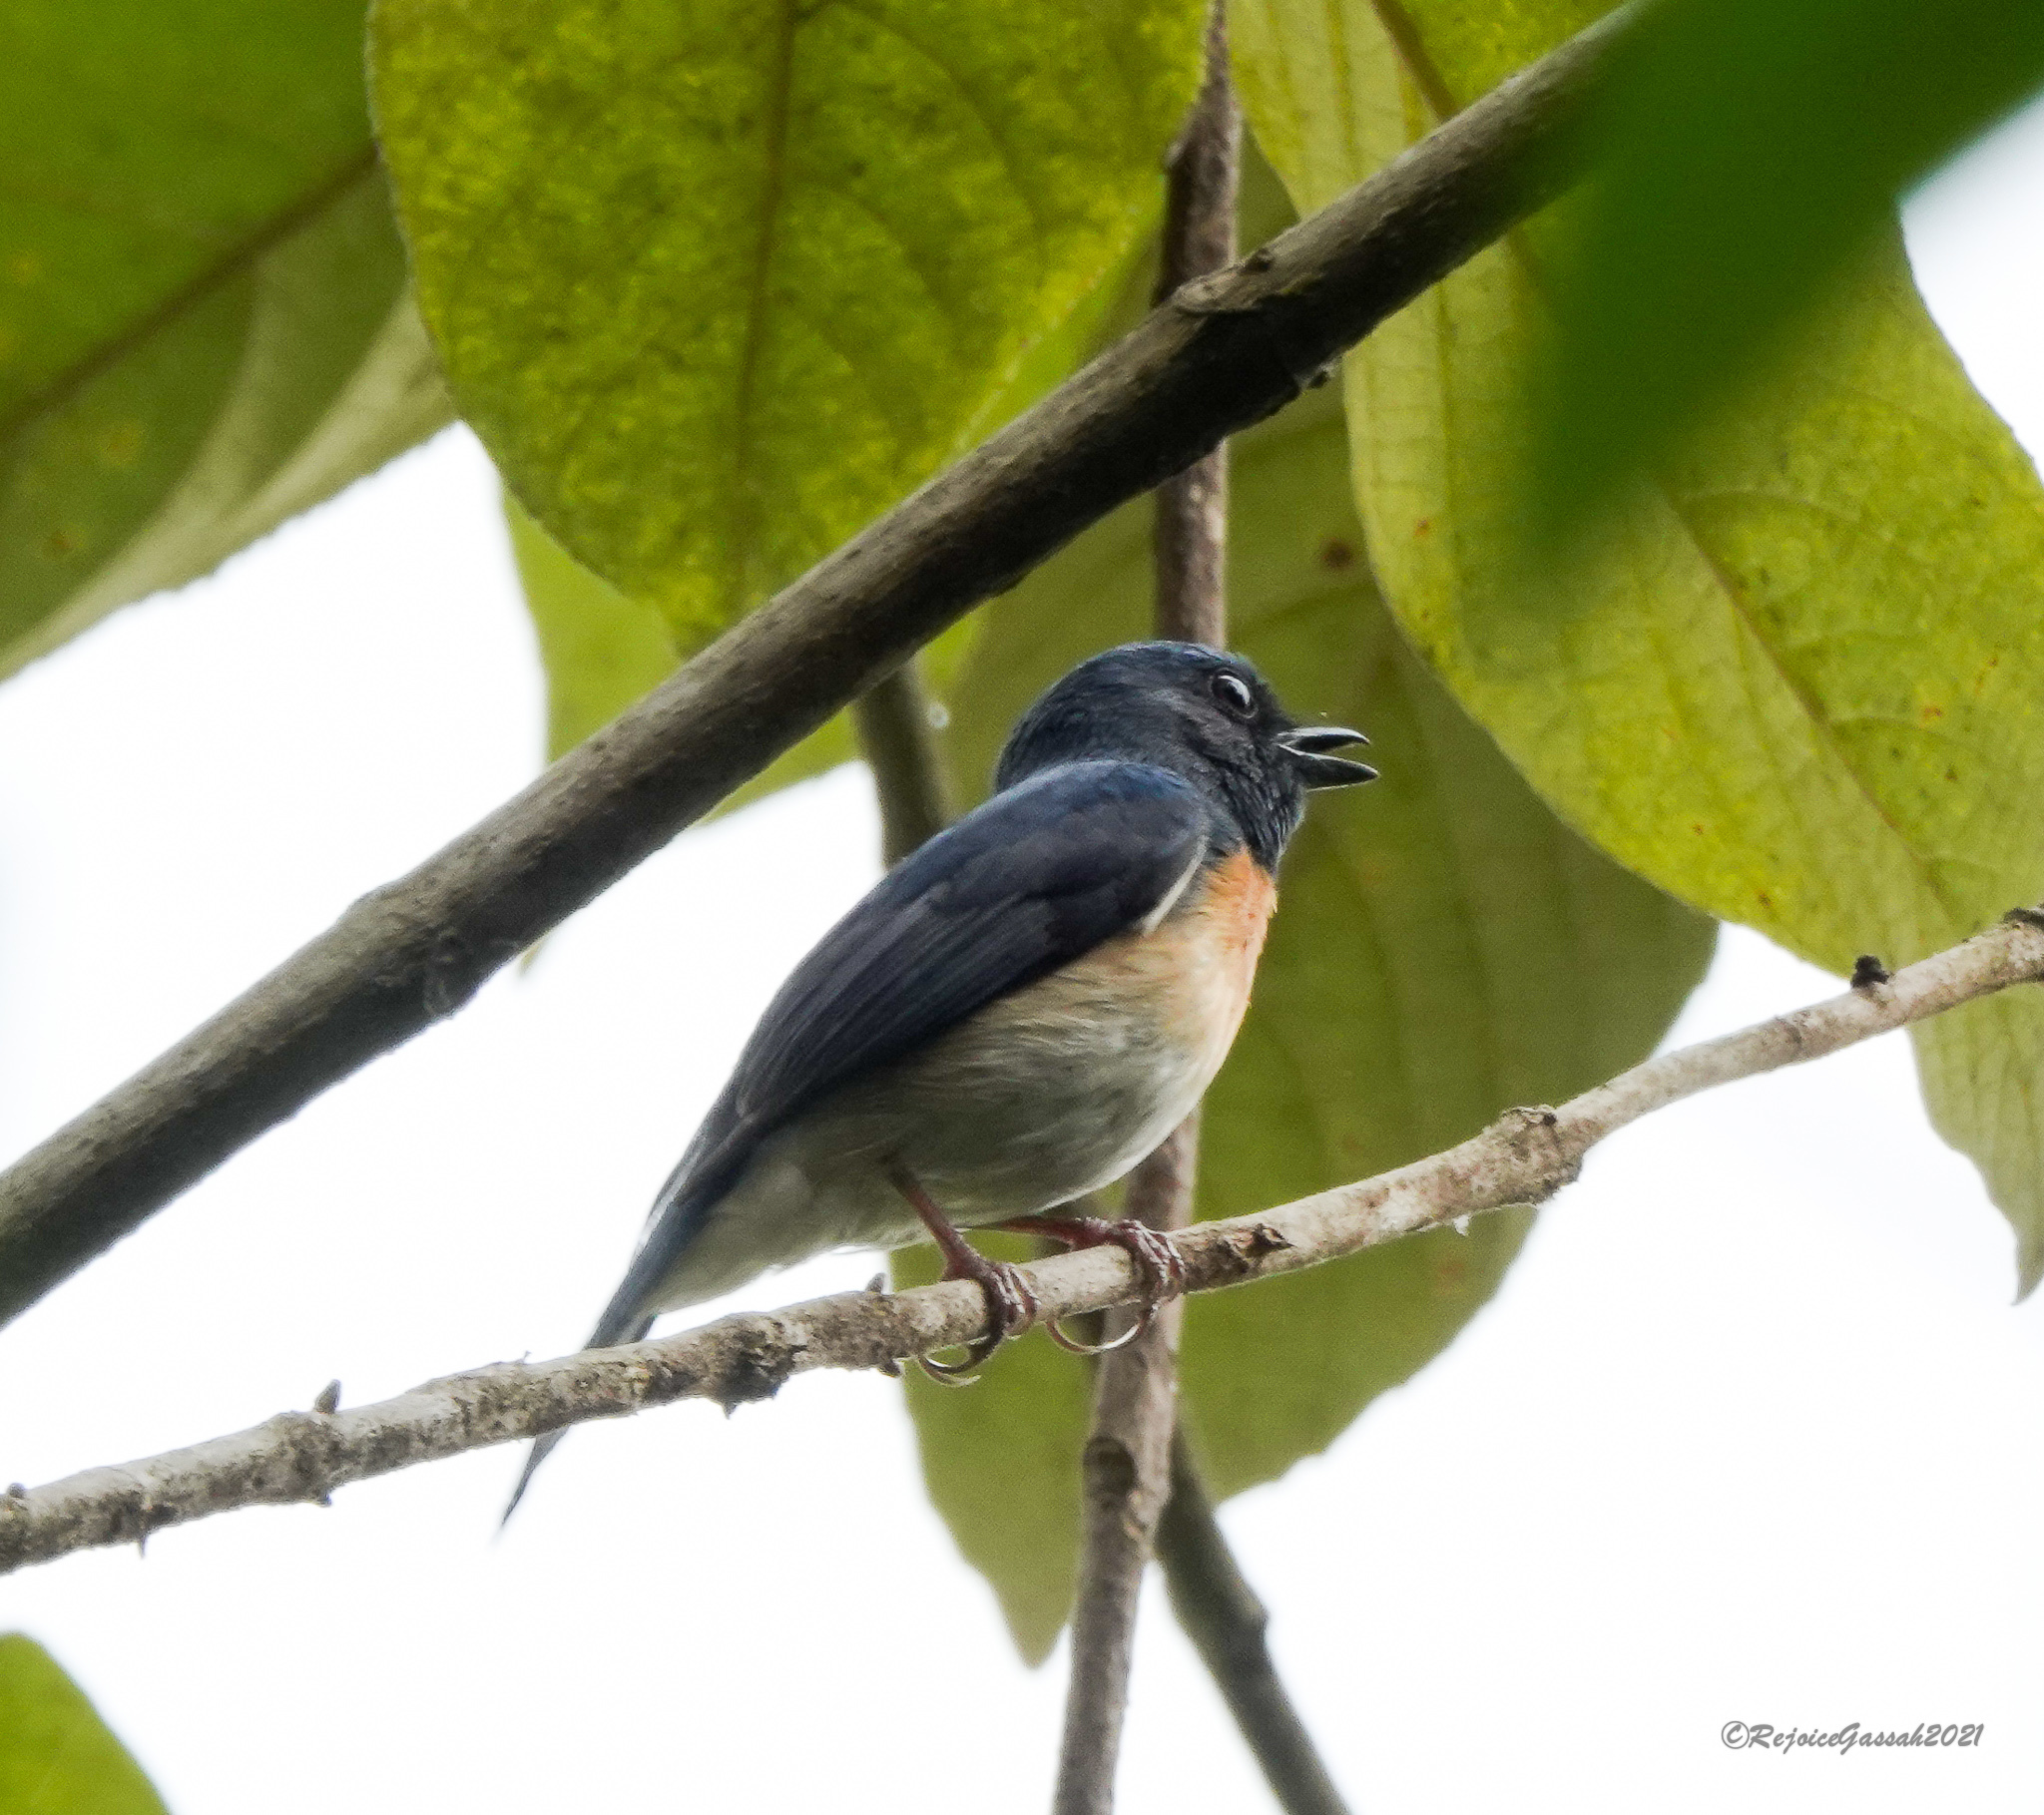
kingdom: Animalia
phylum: Chordata
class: Aves
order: Passeriformes
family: Muscicapidae
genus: Cyornis
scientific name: Cyornis rubeculoides
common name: Blue-throated blue flycatcher
